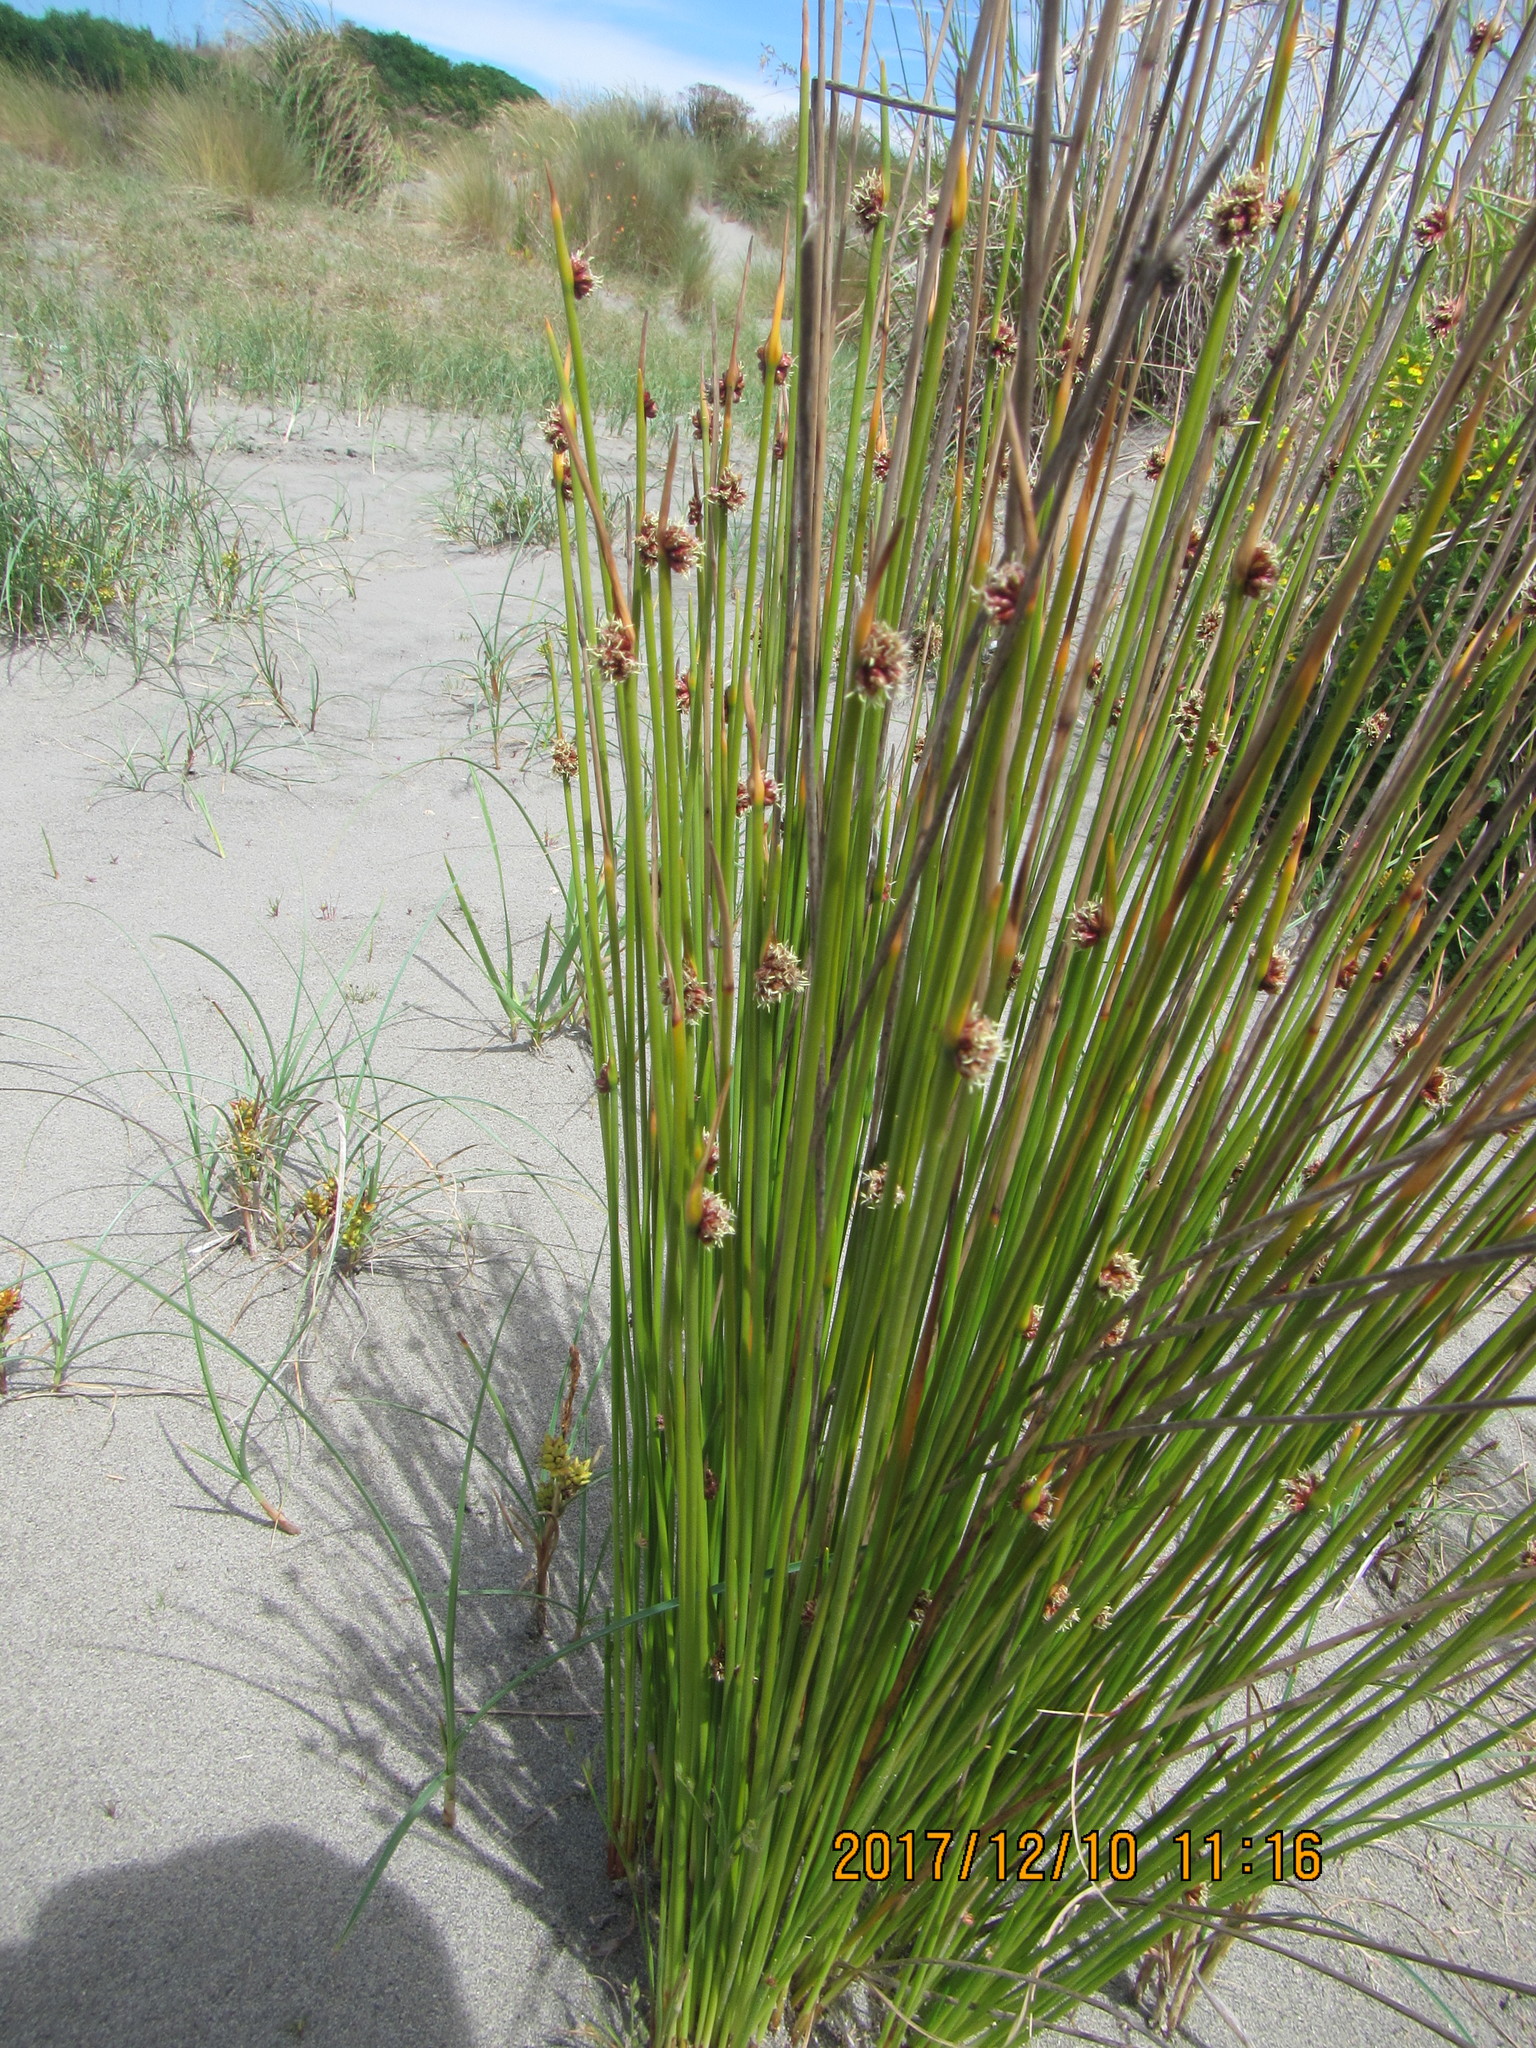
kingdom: Plantae
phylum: Tracheophyta
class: Liliopsida
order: Poales
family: Cyperaceae
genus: Ficinia
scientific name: Ficinia nodosa
